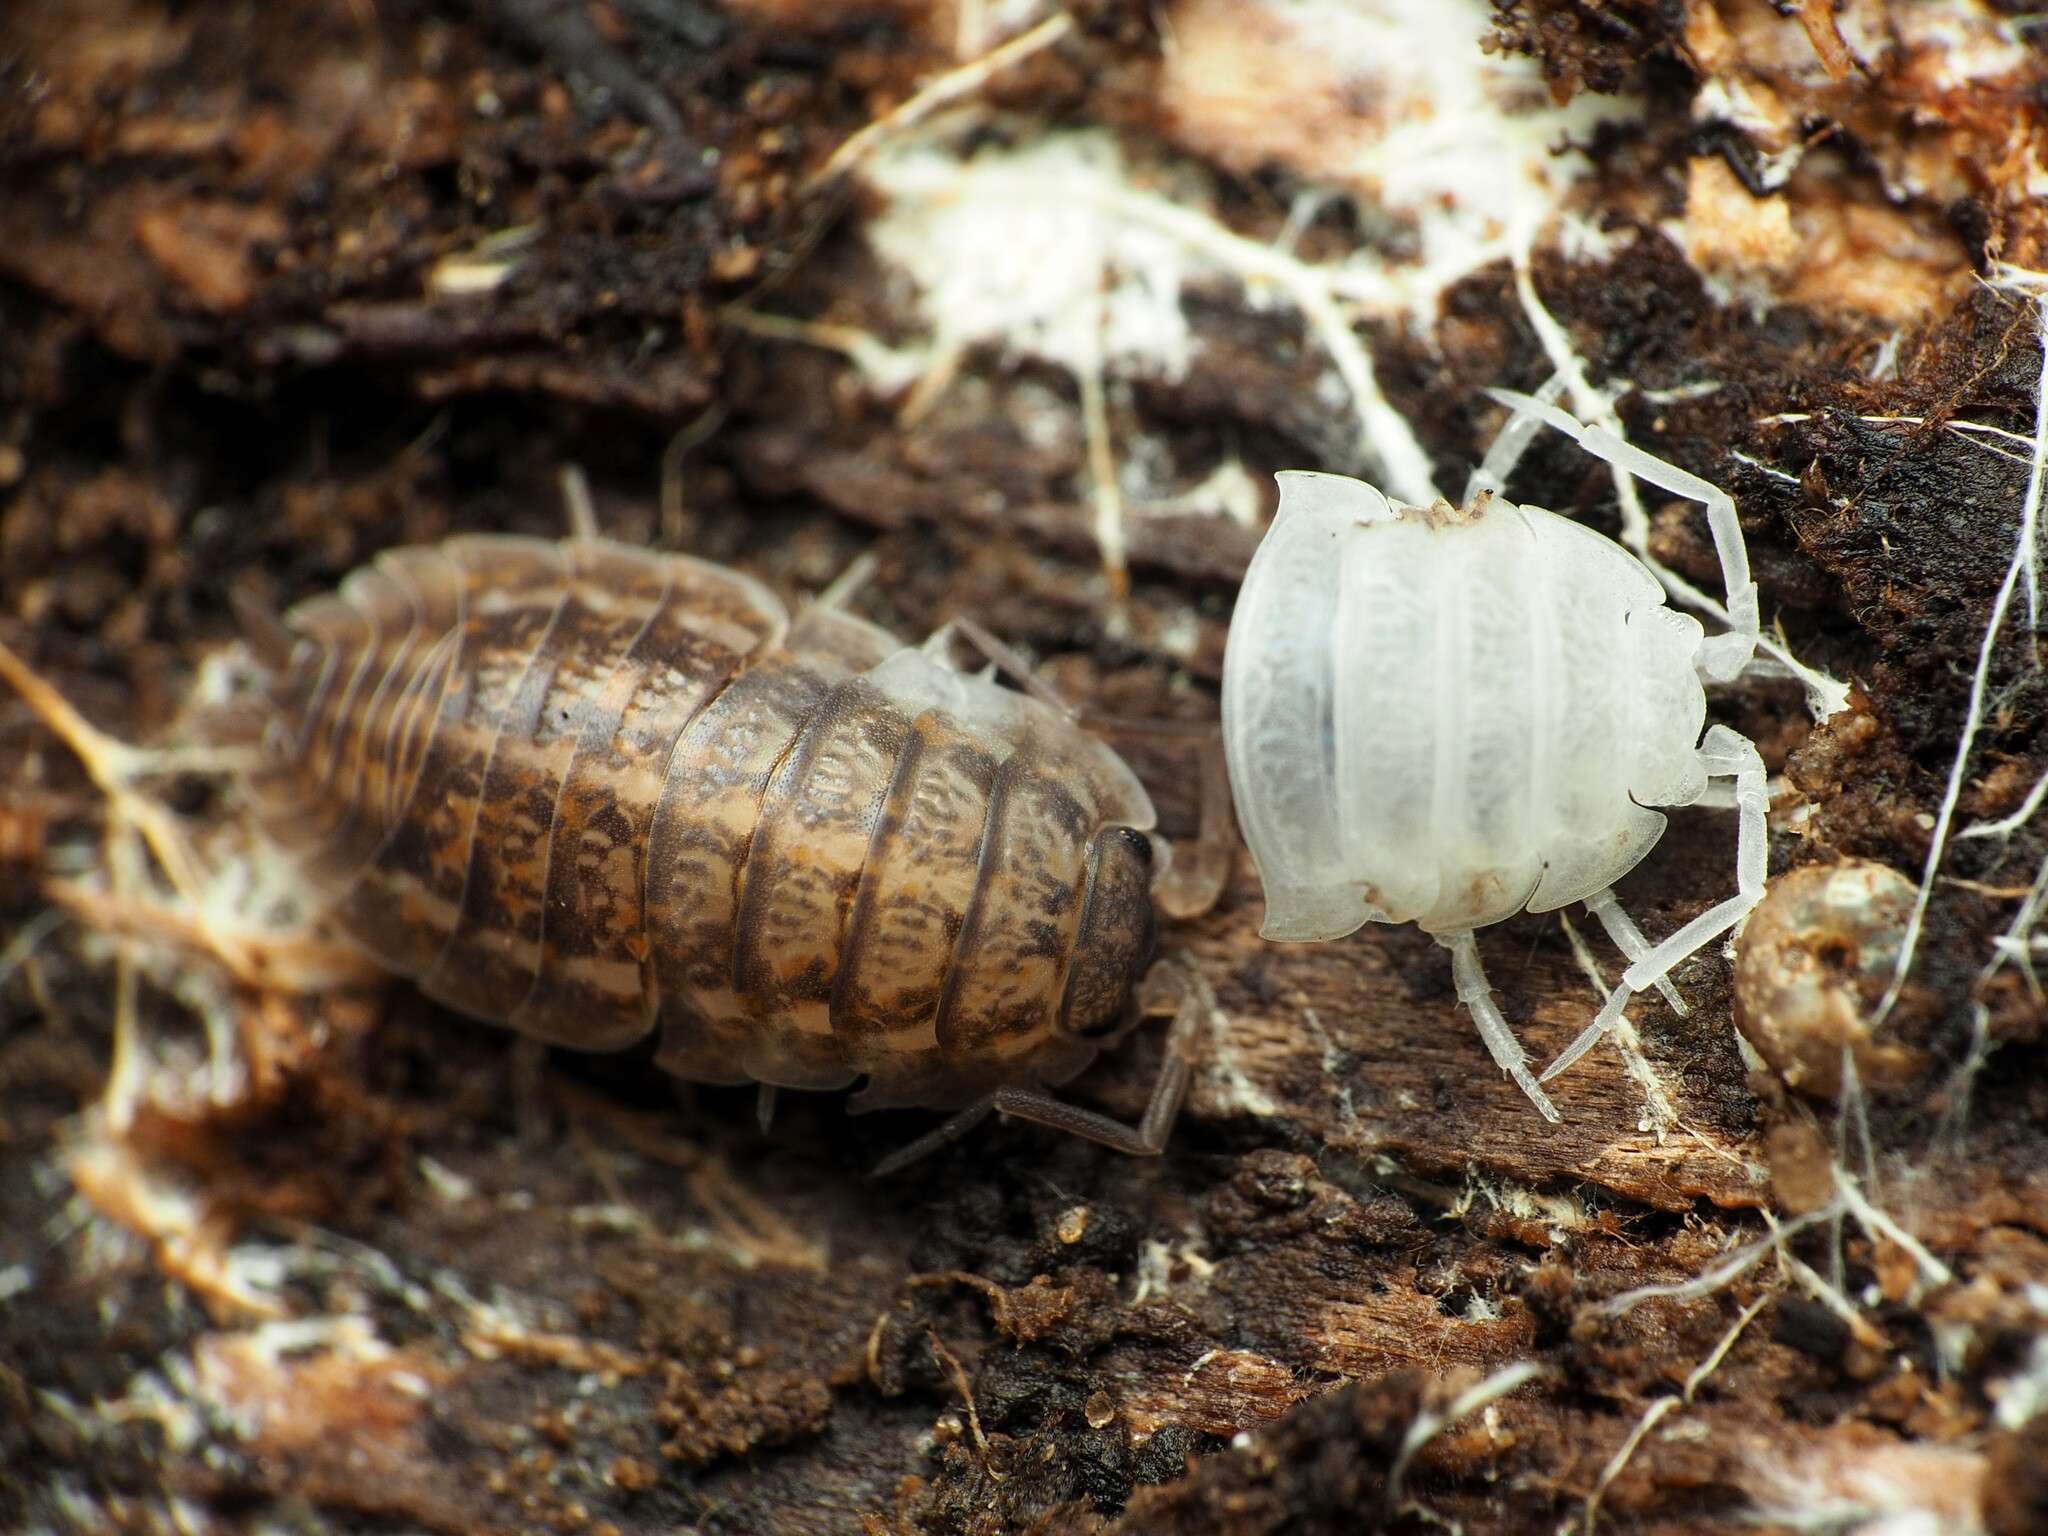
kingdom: Animalia
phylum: Arthropoda
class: Malacostraca
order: Isopoda
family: Trachelipodidae
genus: Trachelipus
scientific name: Trachelipus rathkii
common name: Isopod
